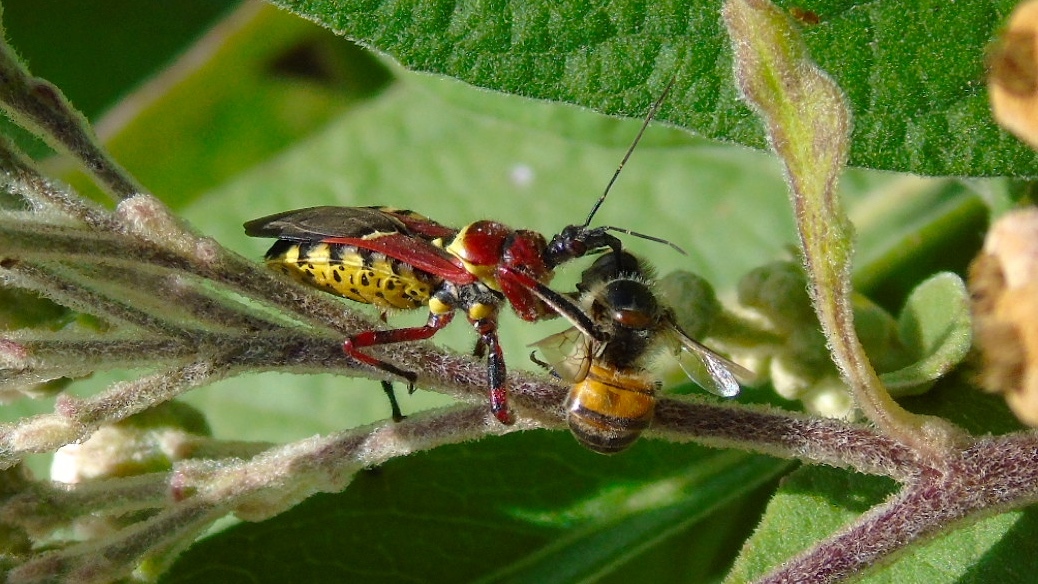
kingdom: Animalia
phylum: Arthropoda
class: Insecta
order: Hemiptera
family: Reduviidae
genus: Apiomerus
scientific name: Apiomerus flaviventris
